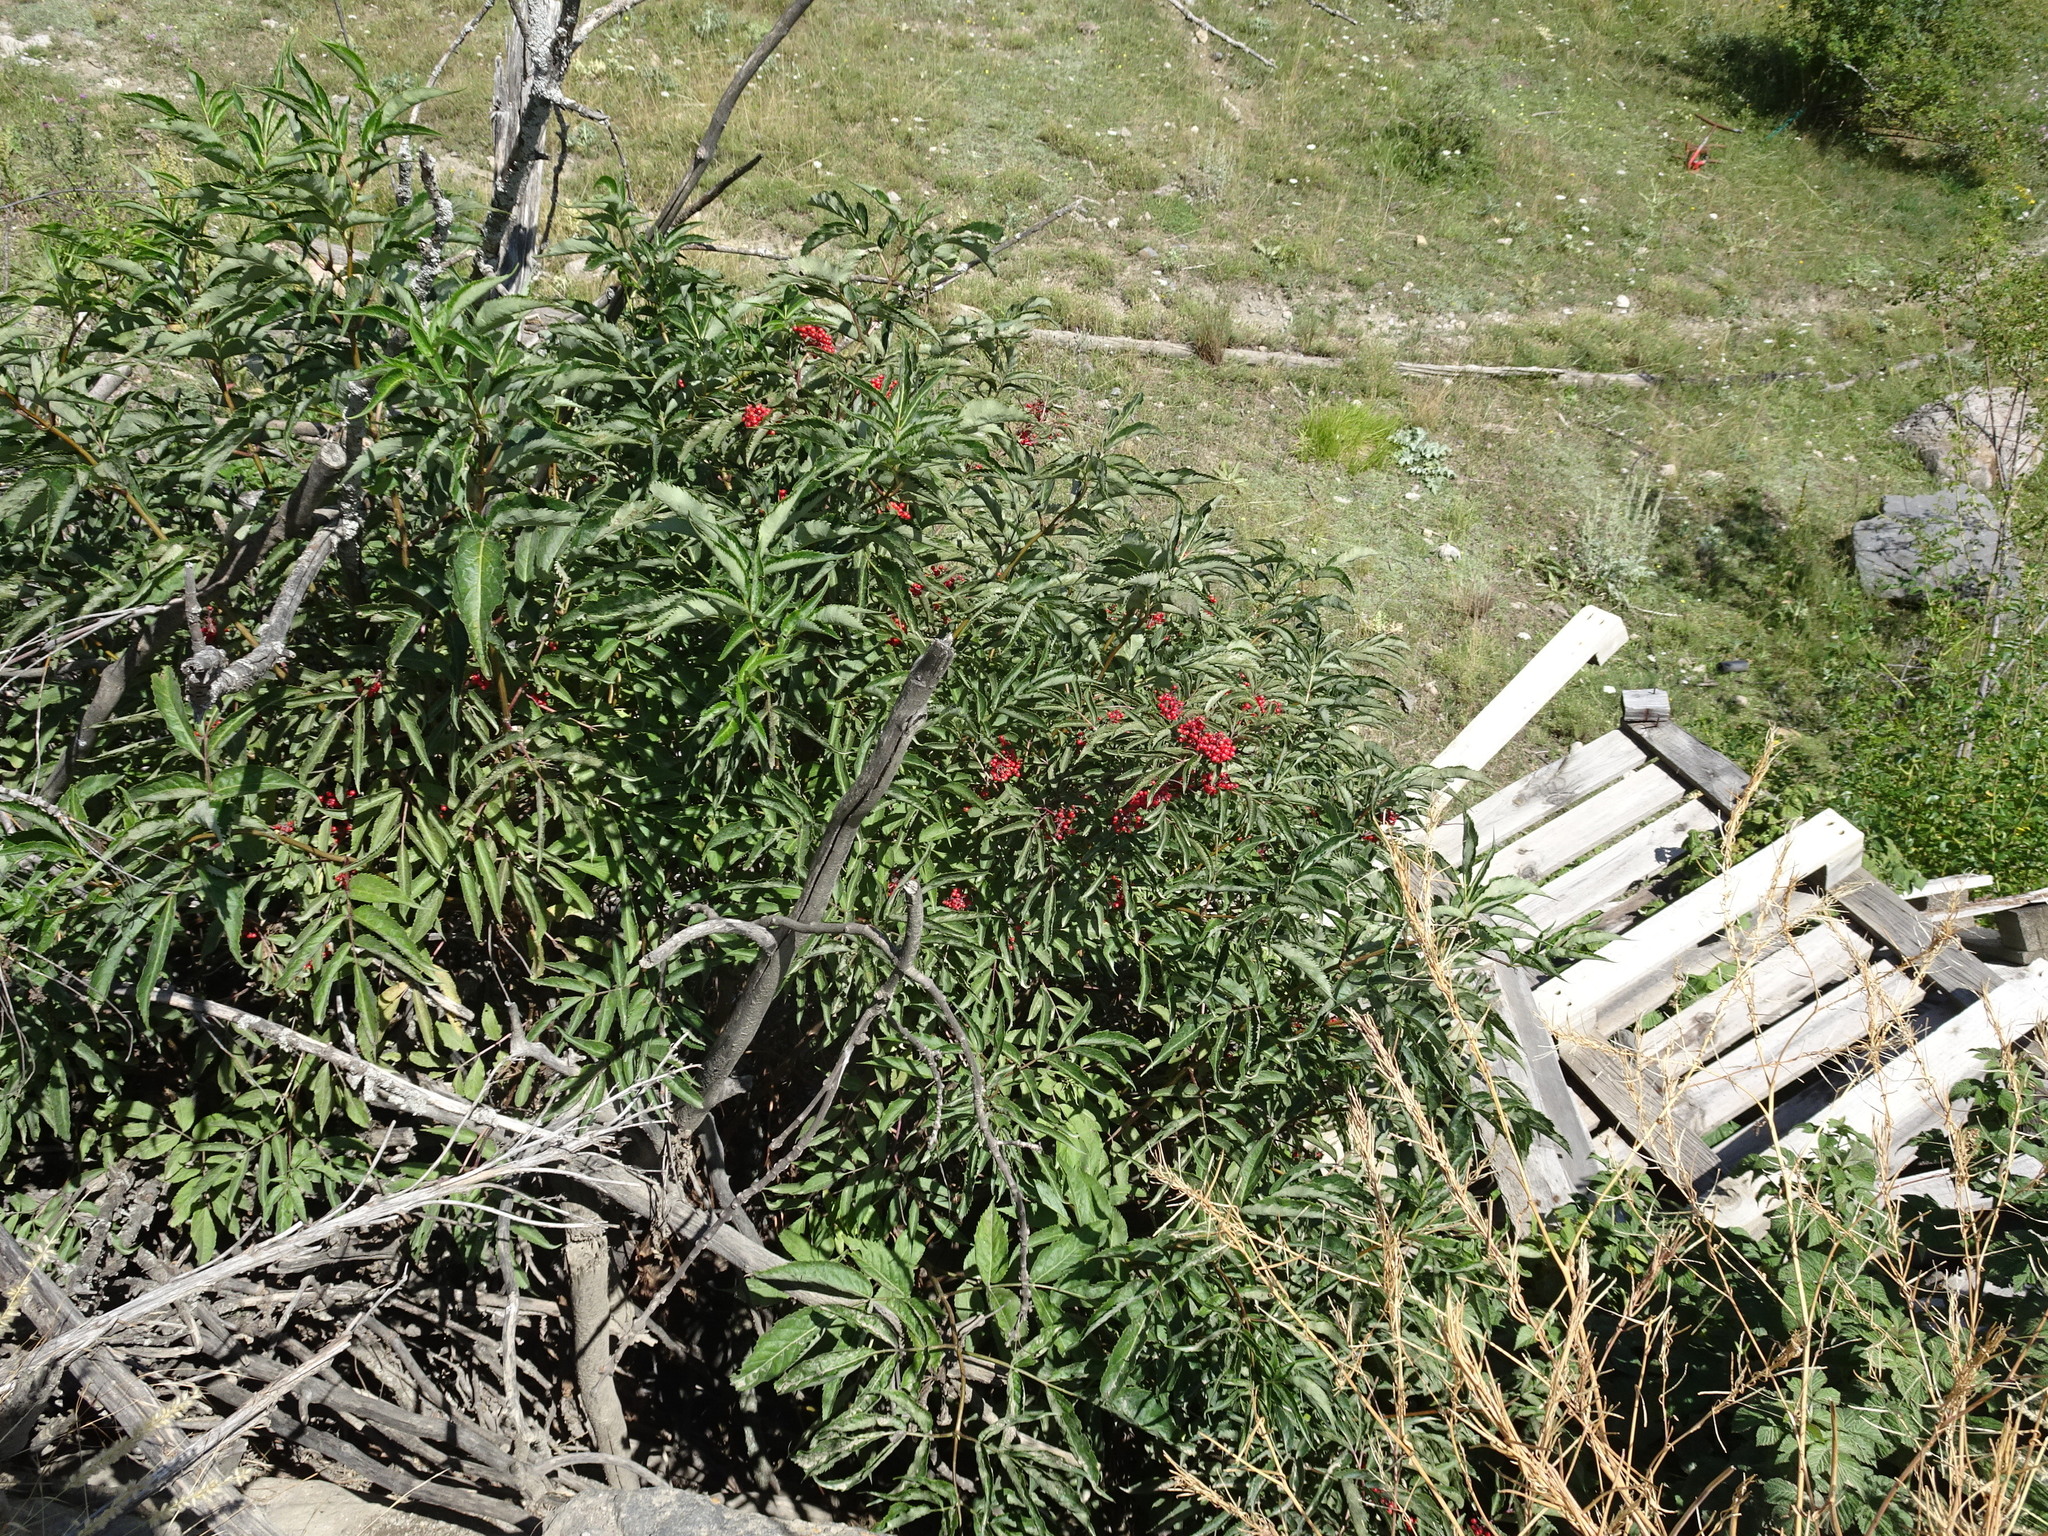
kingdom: Plantae
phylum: Tracheophyta
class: Magnoliopsida
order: Dipsacales
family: Viburnaceae
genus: Sambucus
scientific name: Sambucus racemosa
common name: Red-berried elder
